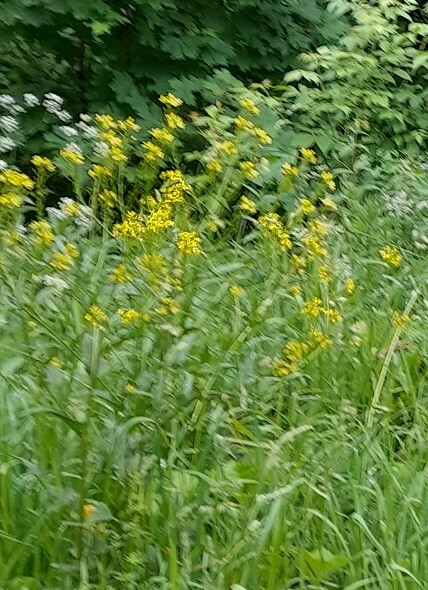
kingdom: Plantae
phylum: Tracheophyta
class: Magnoliopsida
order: Brassicales
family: Brassicaceae
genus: Barbarea
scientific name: Barbarea vulgaris
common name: Cressy-greens
